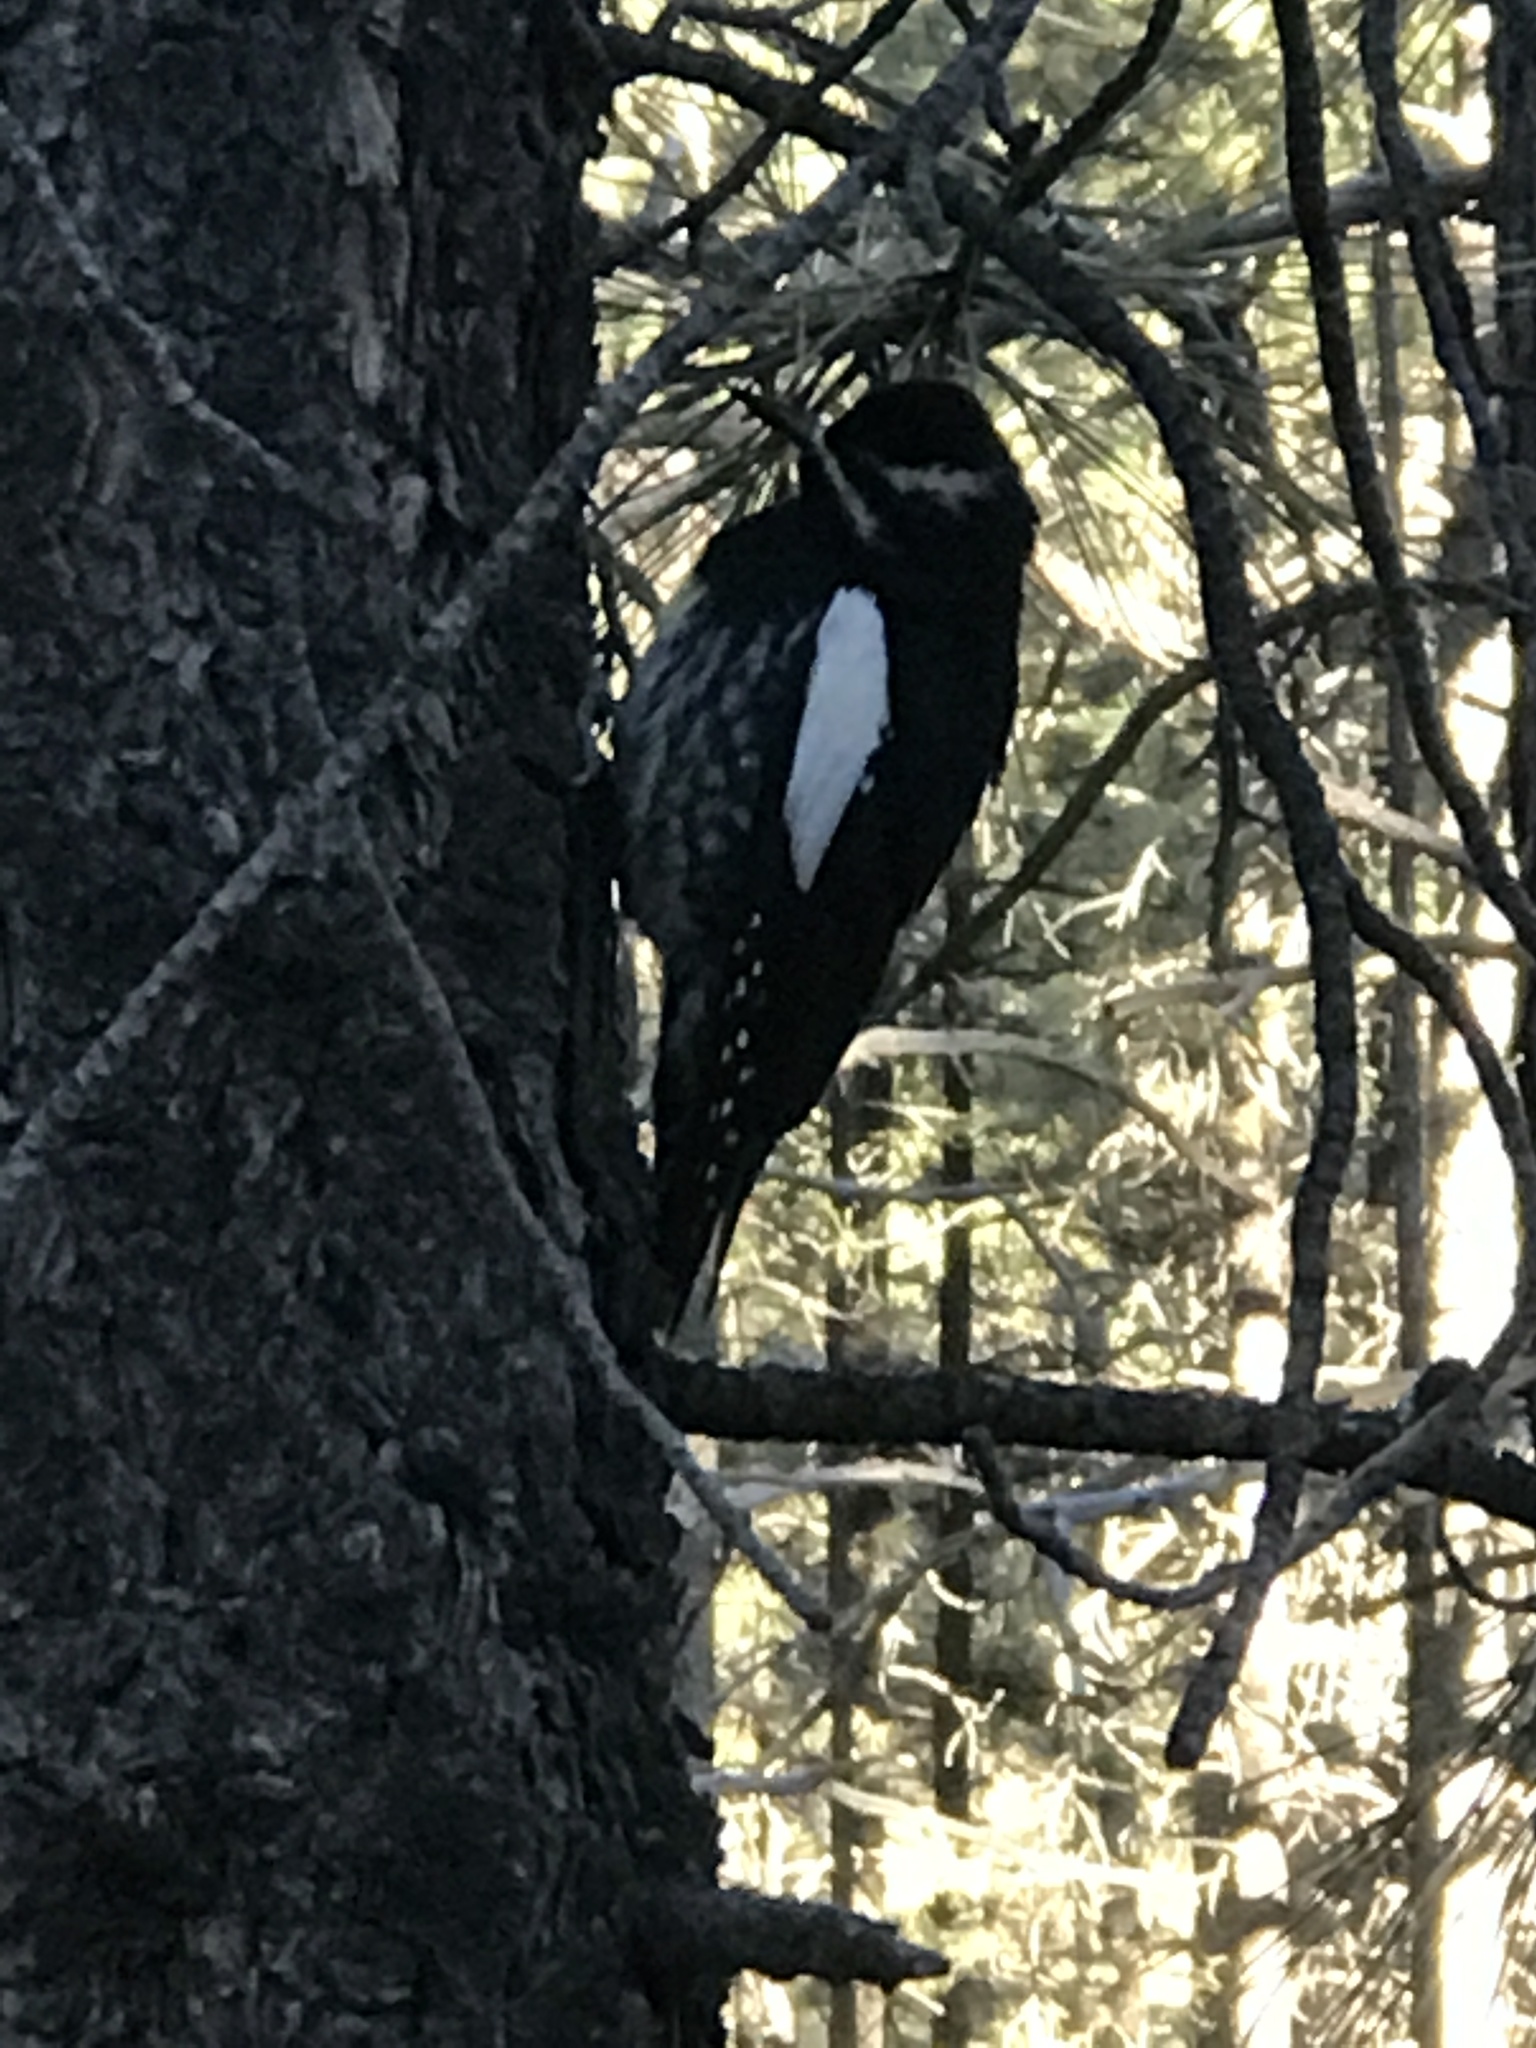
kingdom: Animalia
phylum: Chordata
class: Aves
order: Piciformes
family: Picidae
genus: Sphyrapicus
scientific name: Sphyrapicus thyroideus
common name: Williamson's sapsucker
